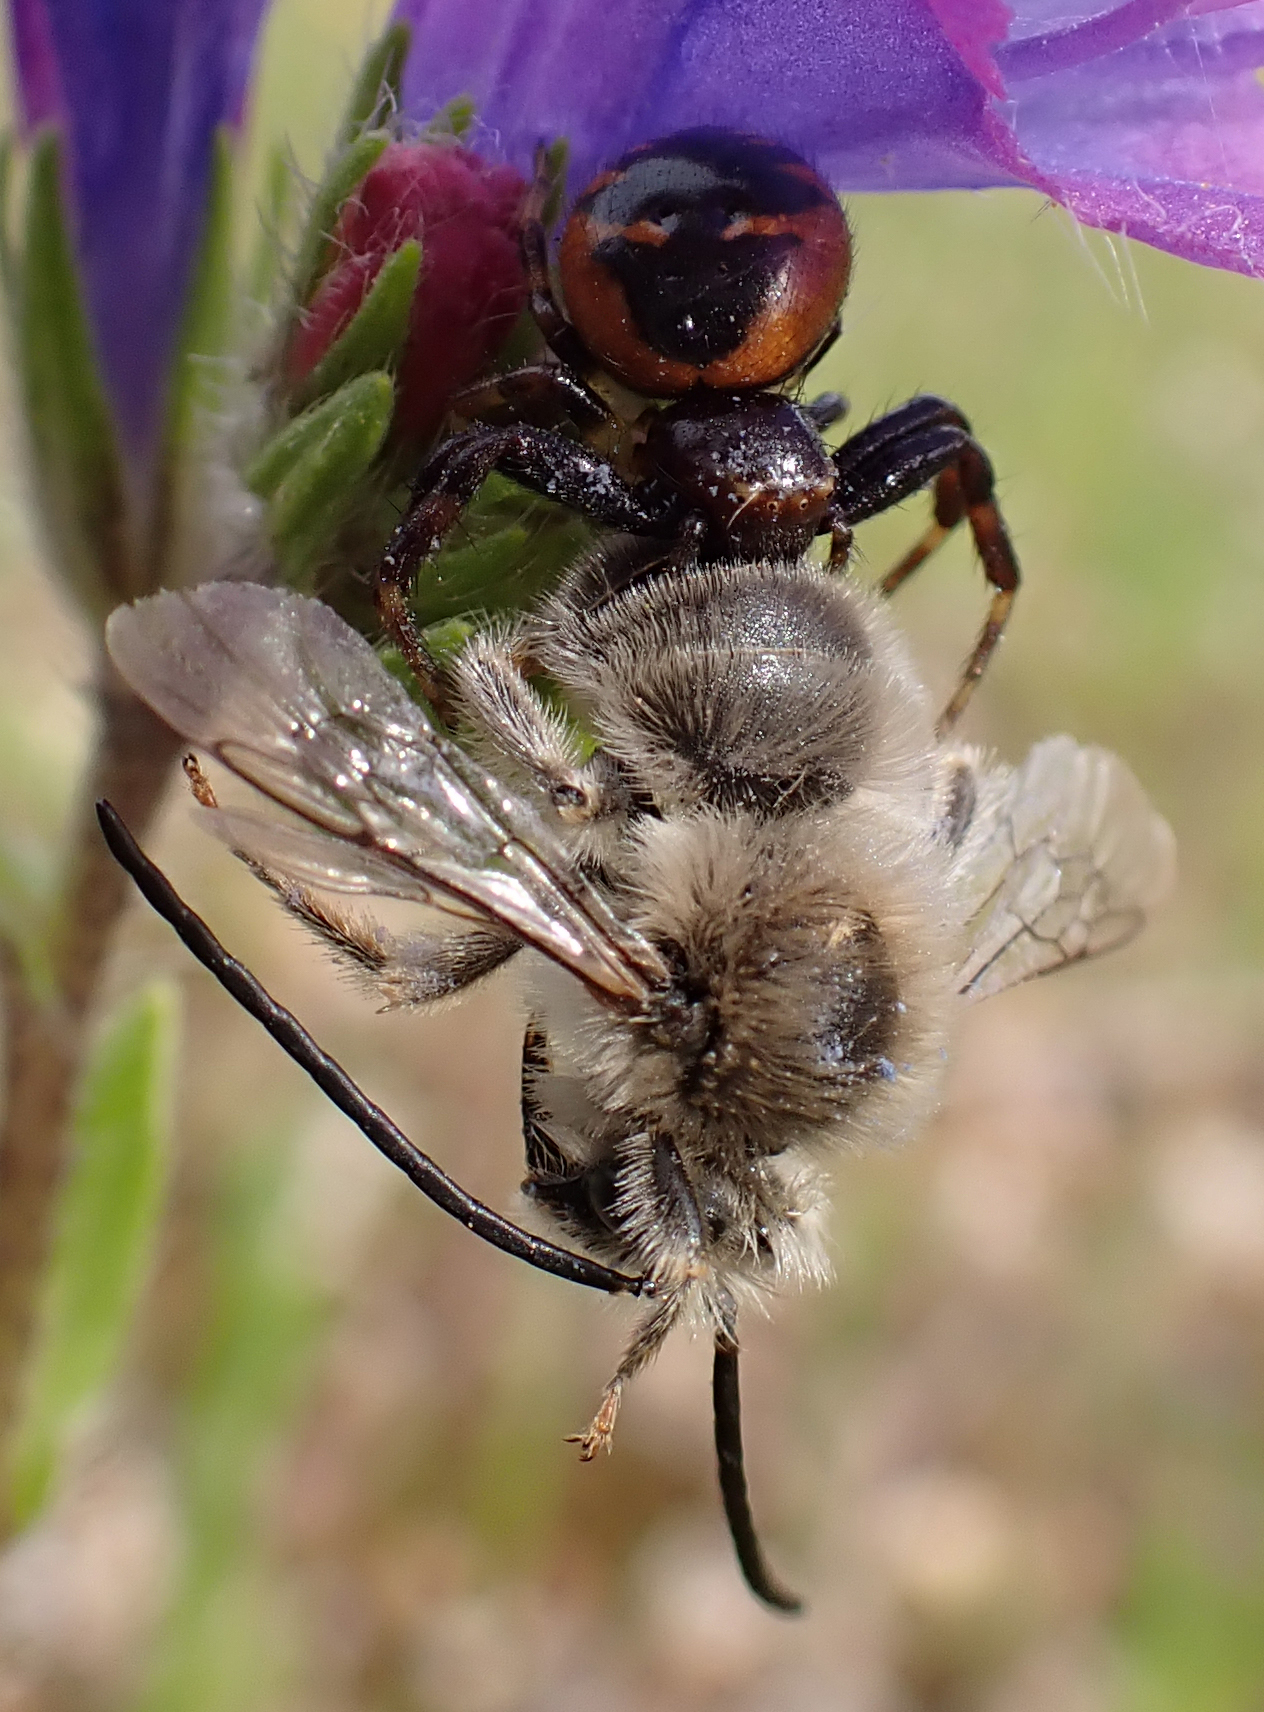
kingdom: Animalia
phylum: Arthropoda
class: Arachnida
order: Araneae
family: Thomisidae
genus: Synema
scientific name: Synema globosum
